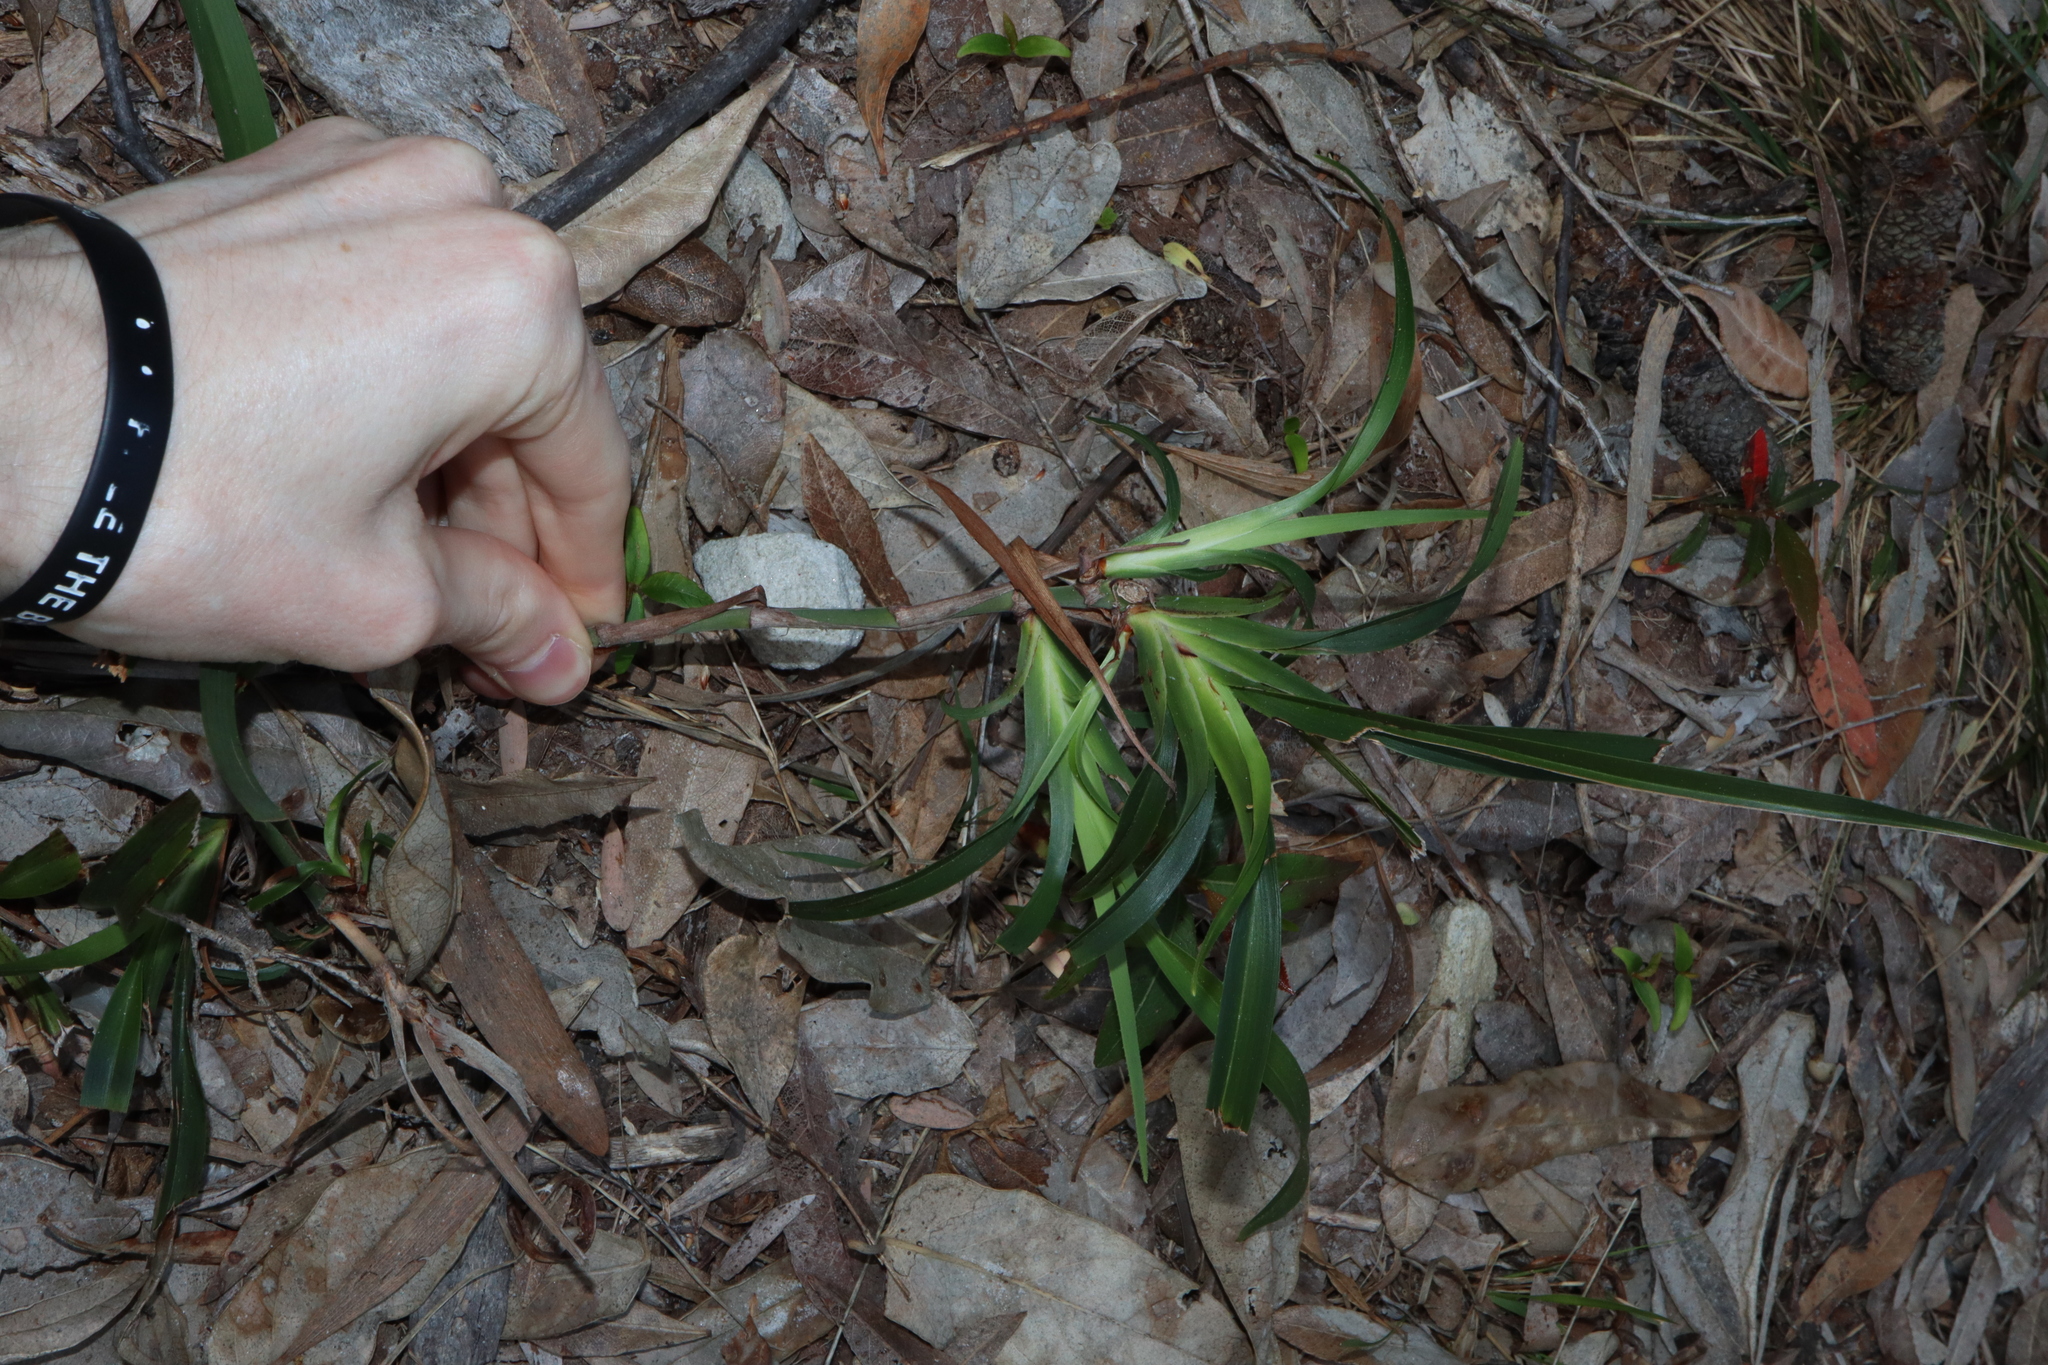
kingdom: Plantae
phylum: Tracheophyta
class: Liliopsida
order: Asparagales
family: Asphodelaceae
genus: Dianella
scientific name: Dianella caerulea
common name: Blue flax-lily
